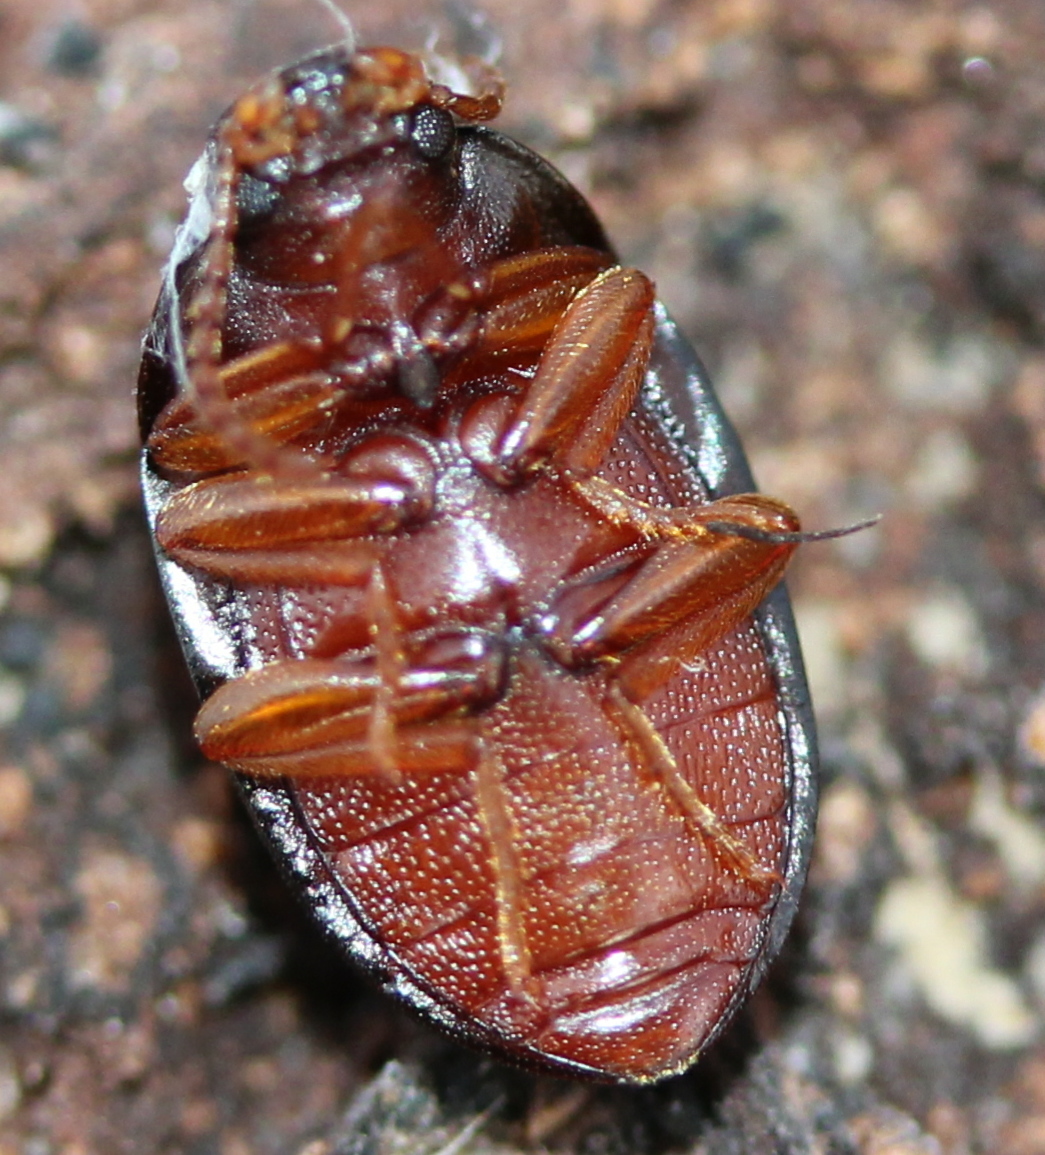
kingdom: Animalia
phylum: Arthropoda
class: Insecta
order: Coleoptera
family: Tenebrionidae
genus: Platydema
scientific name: Platydema ruficornis
